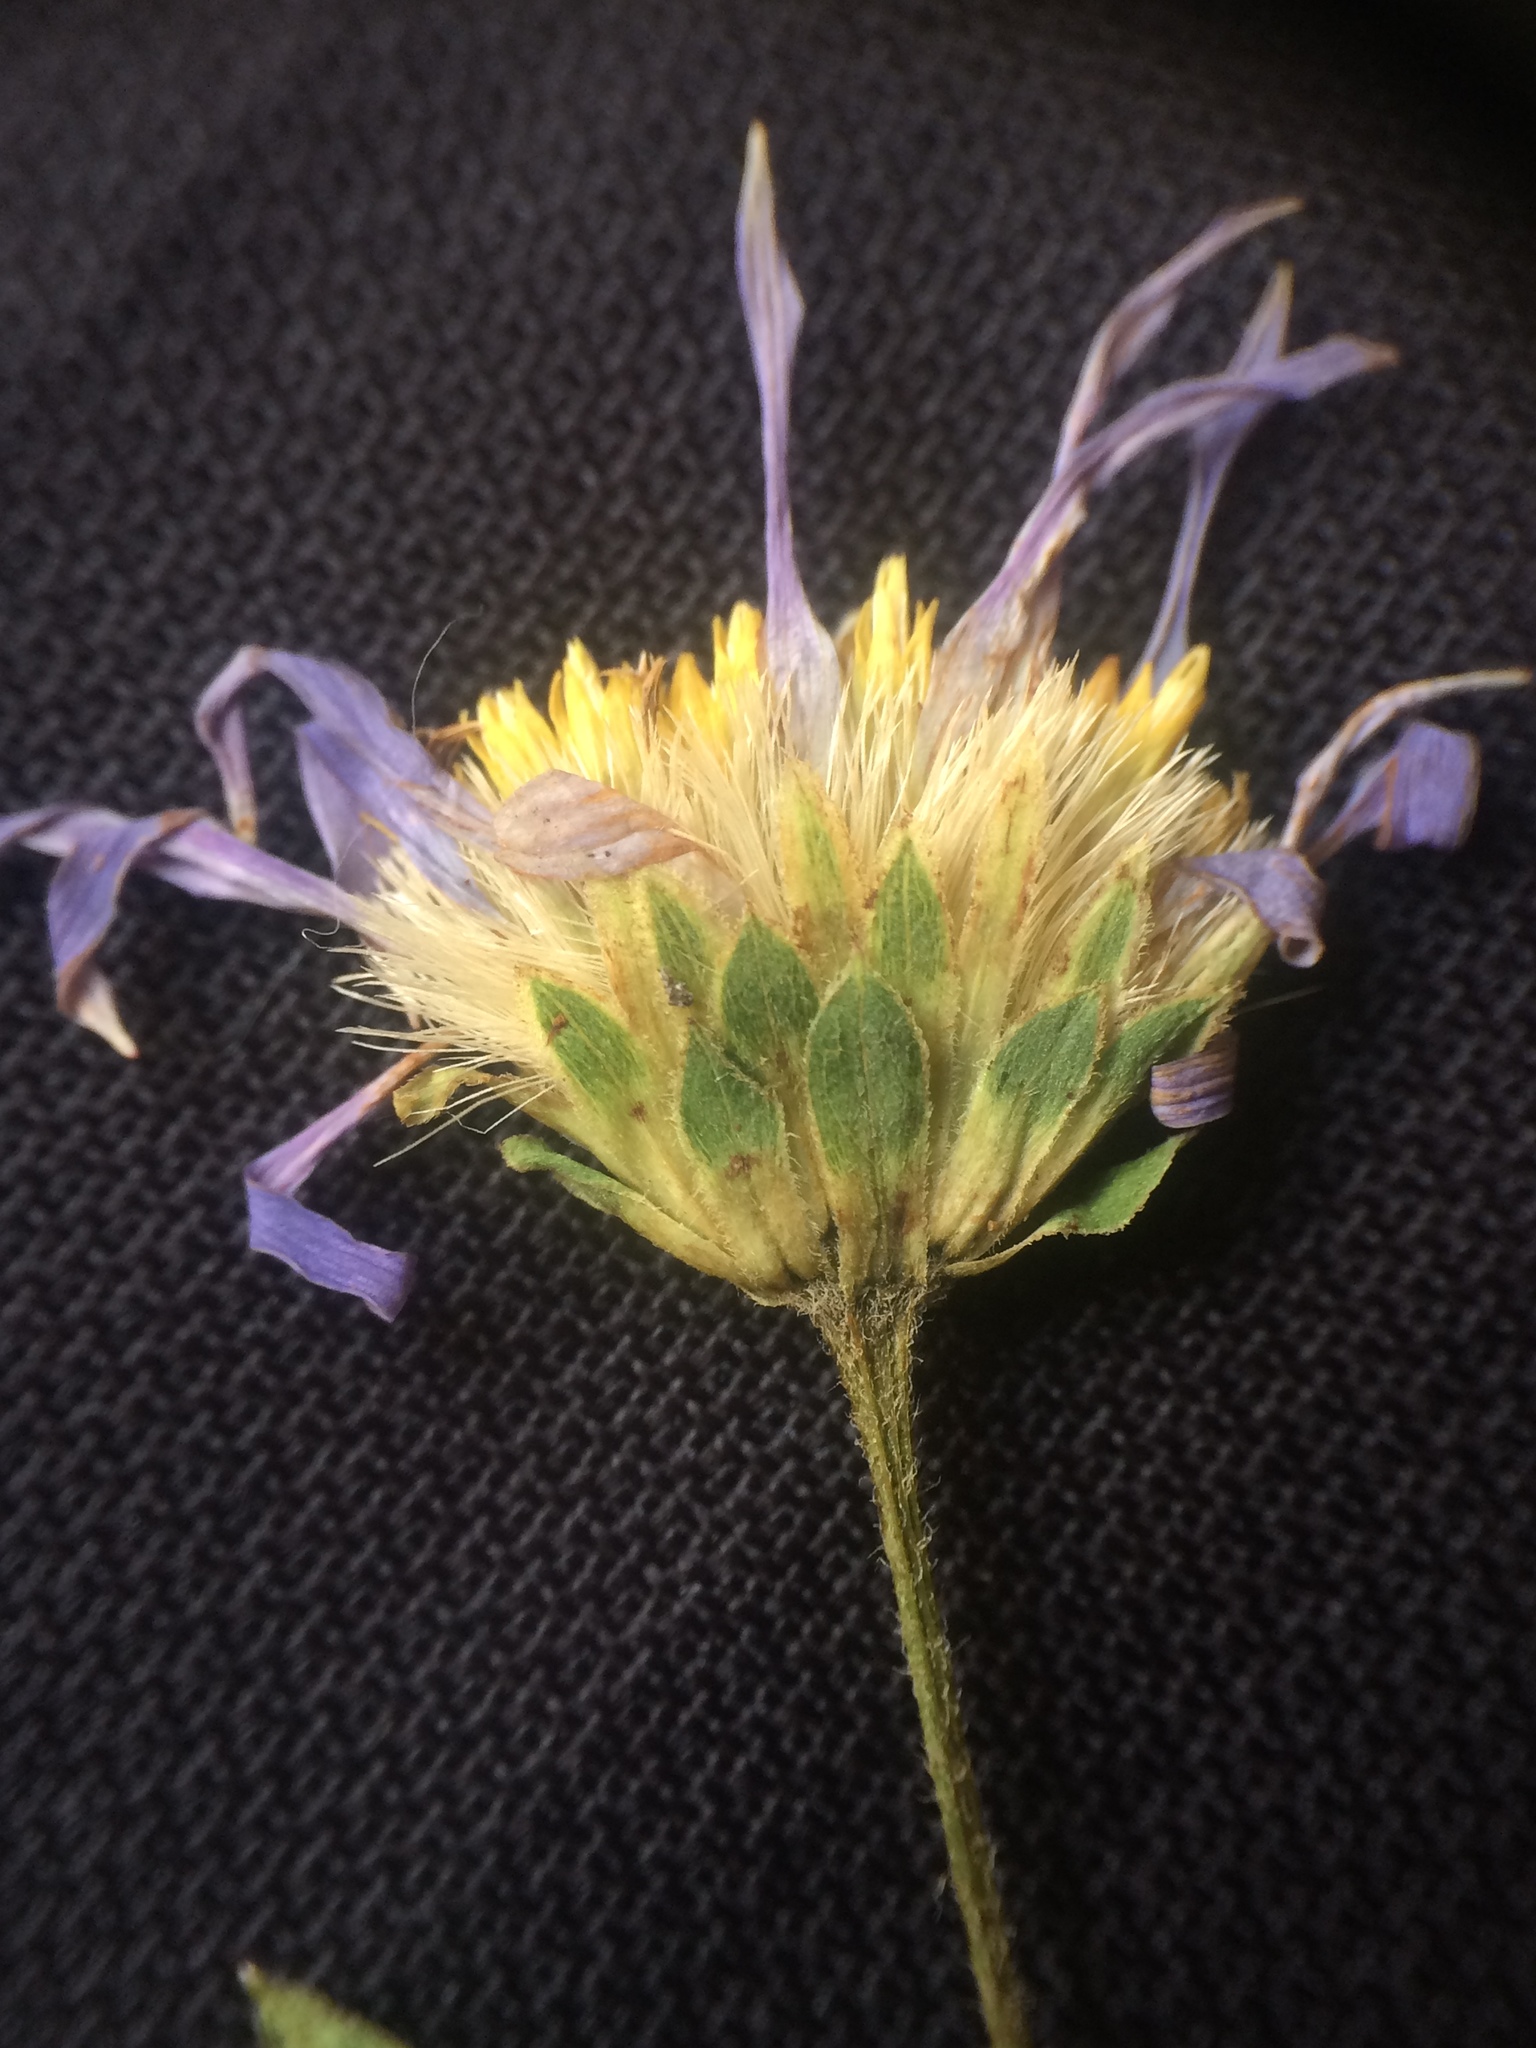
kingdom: Plantae
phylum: Tracheophyta
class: Magnoliopsida
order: Asterales
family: Asteraceae
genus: Eurybia
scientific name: Eurybia radula
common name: Low rough aster
